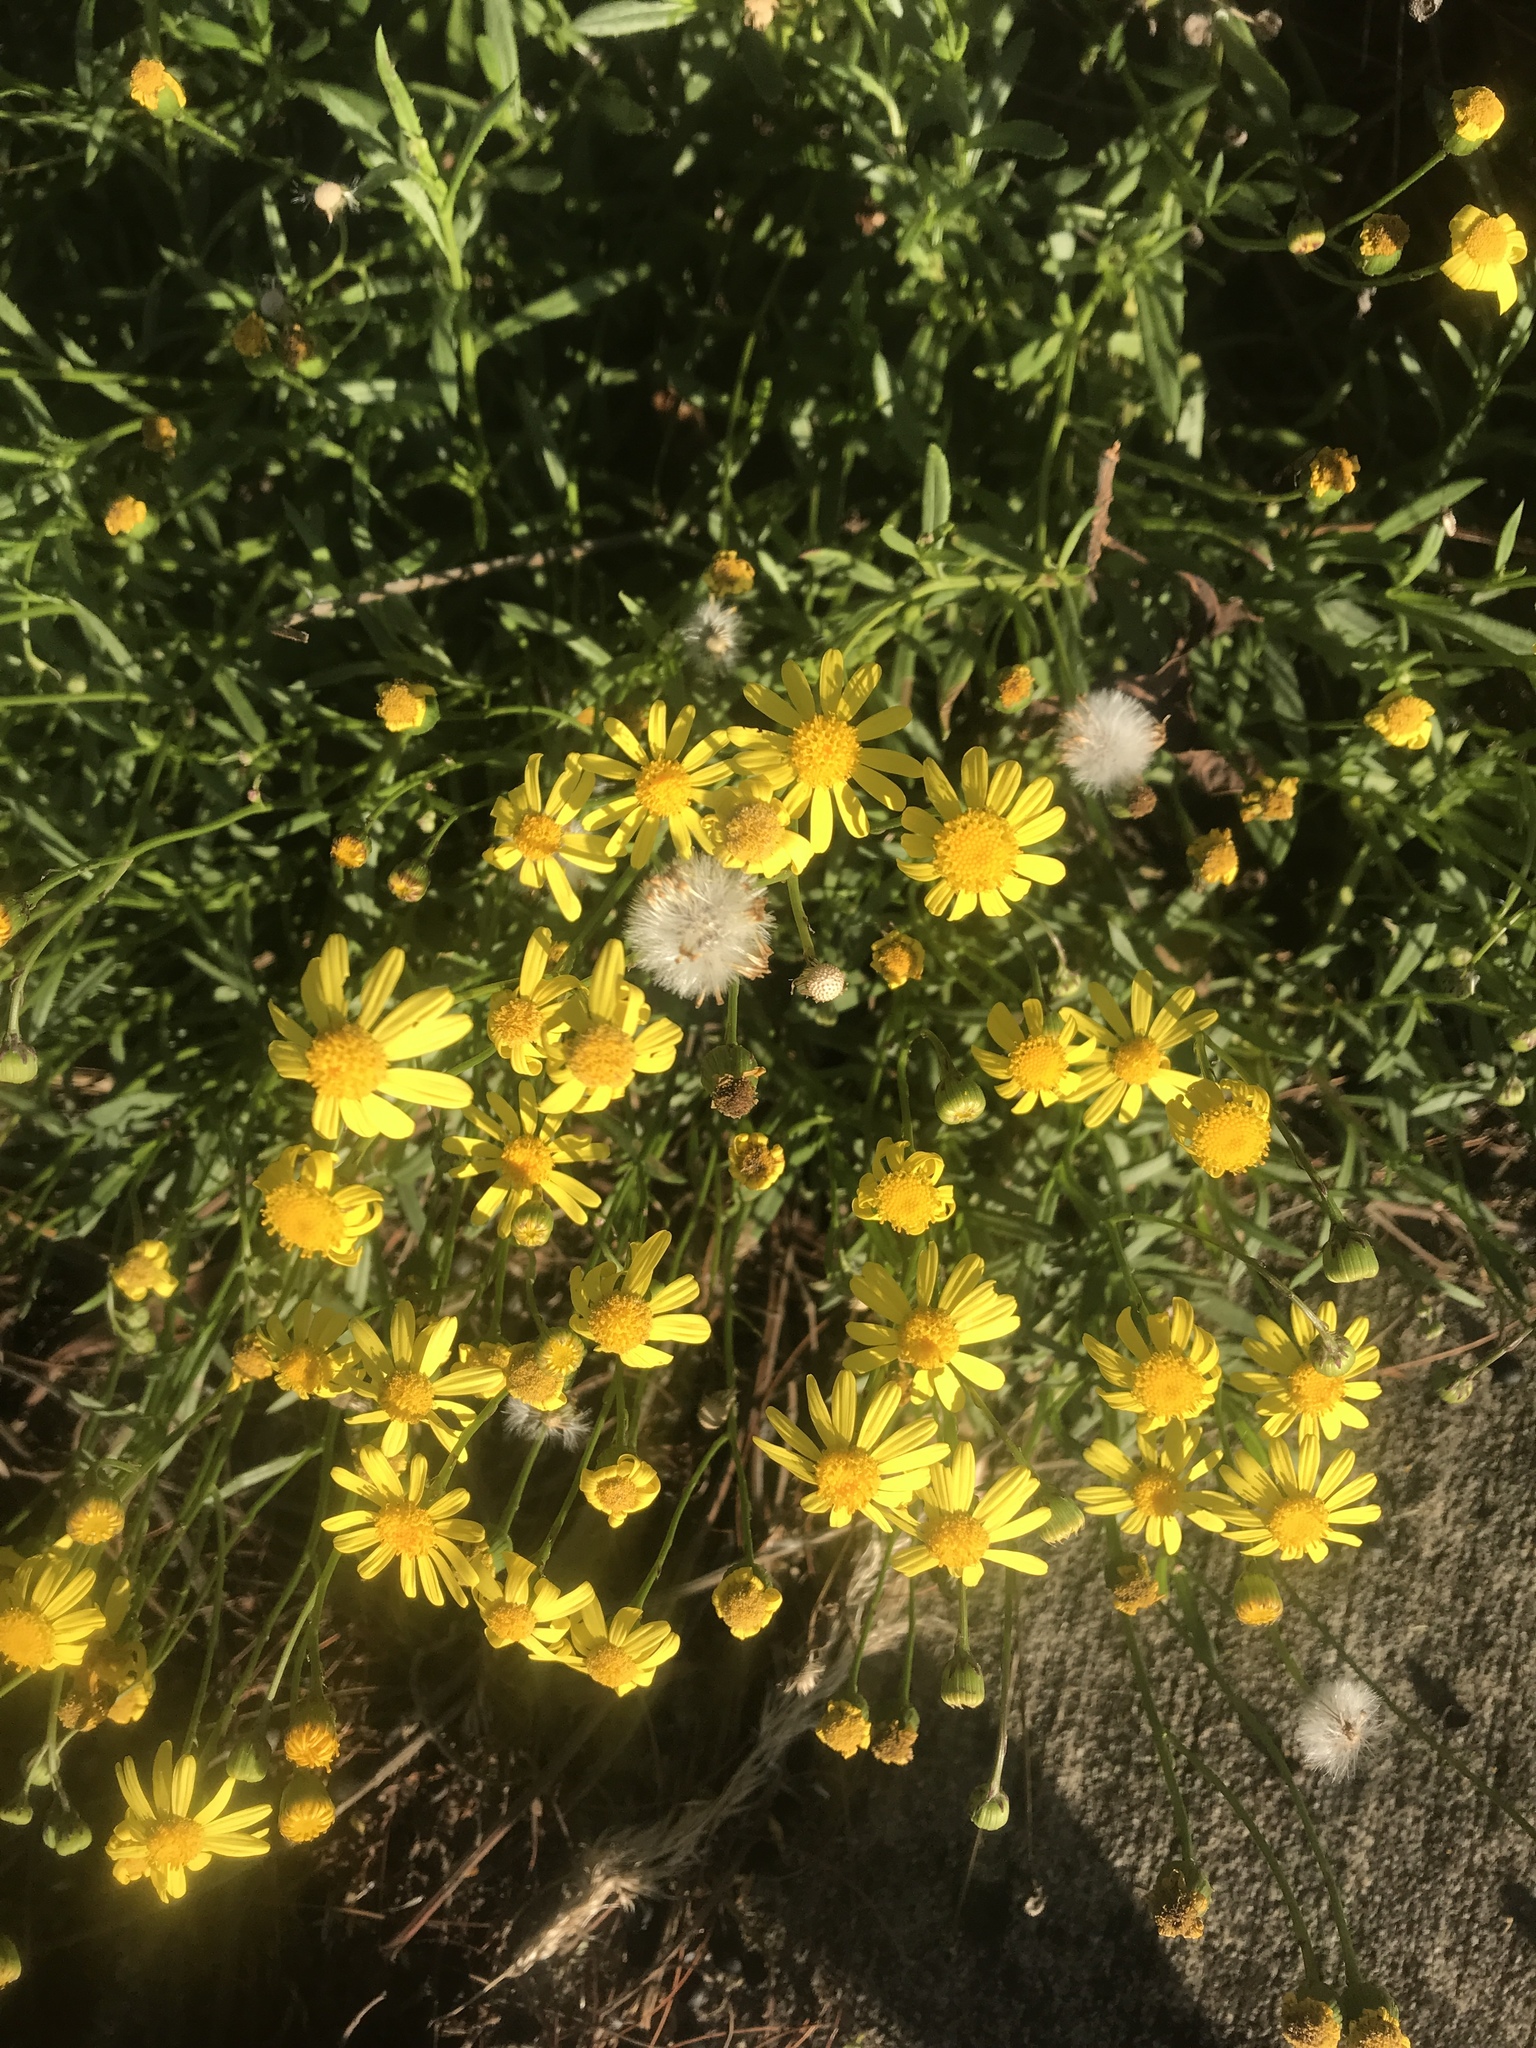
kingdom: Plantae
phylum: Tracheophyta
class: Magnoliopsida
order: Asterales
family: Asteraceae
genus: Senecio
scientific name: Senecio skirrhodon
